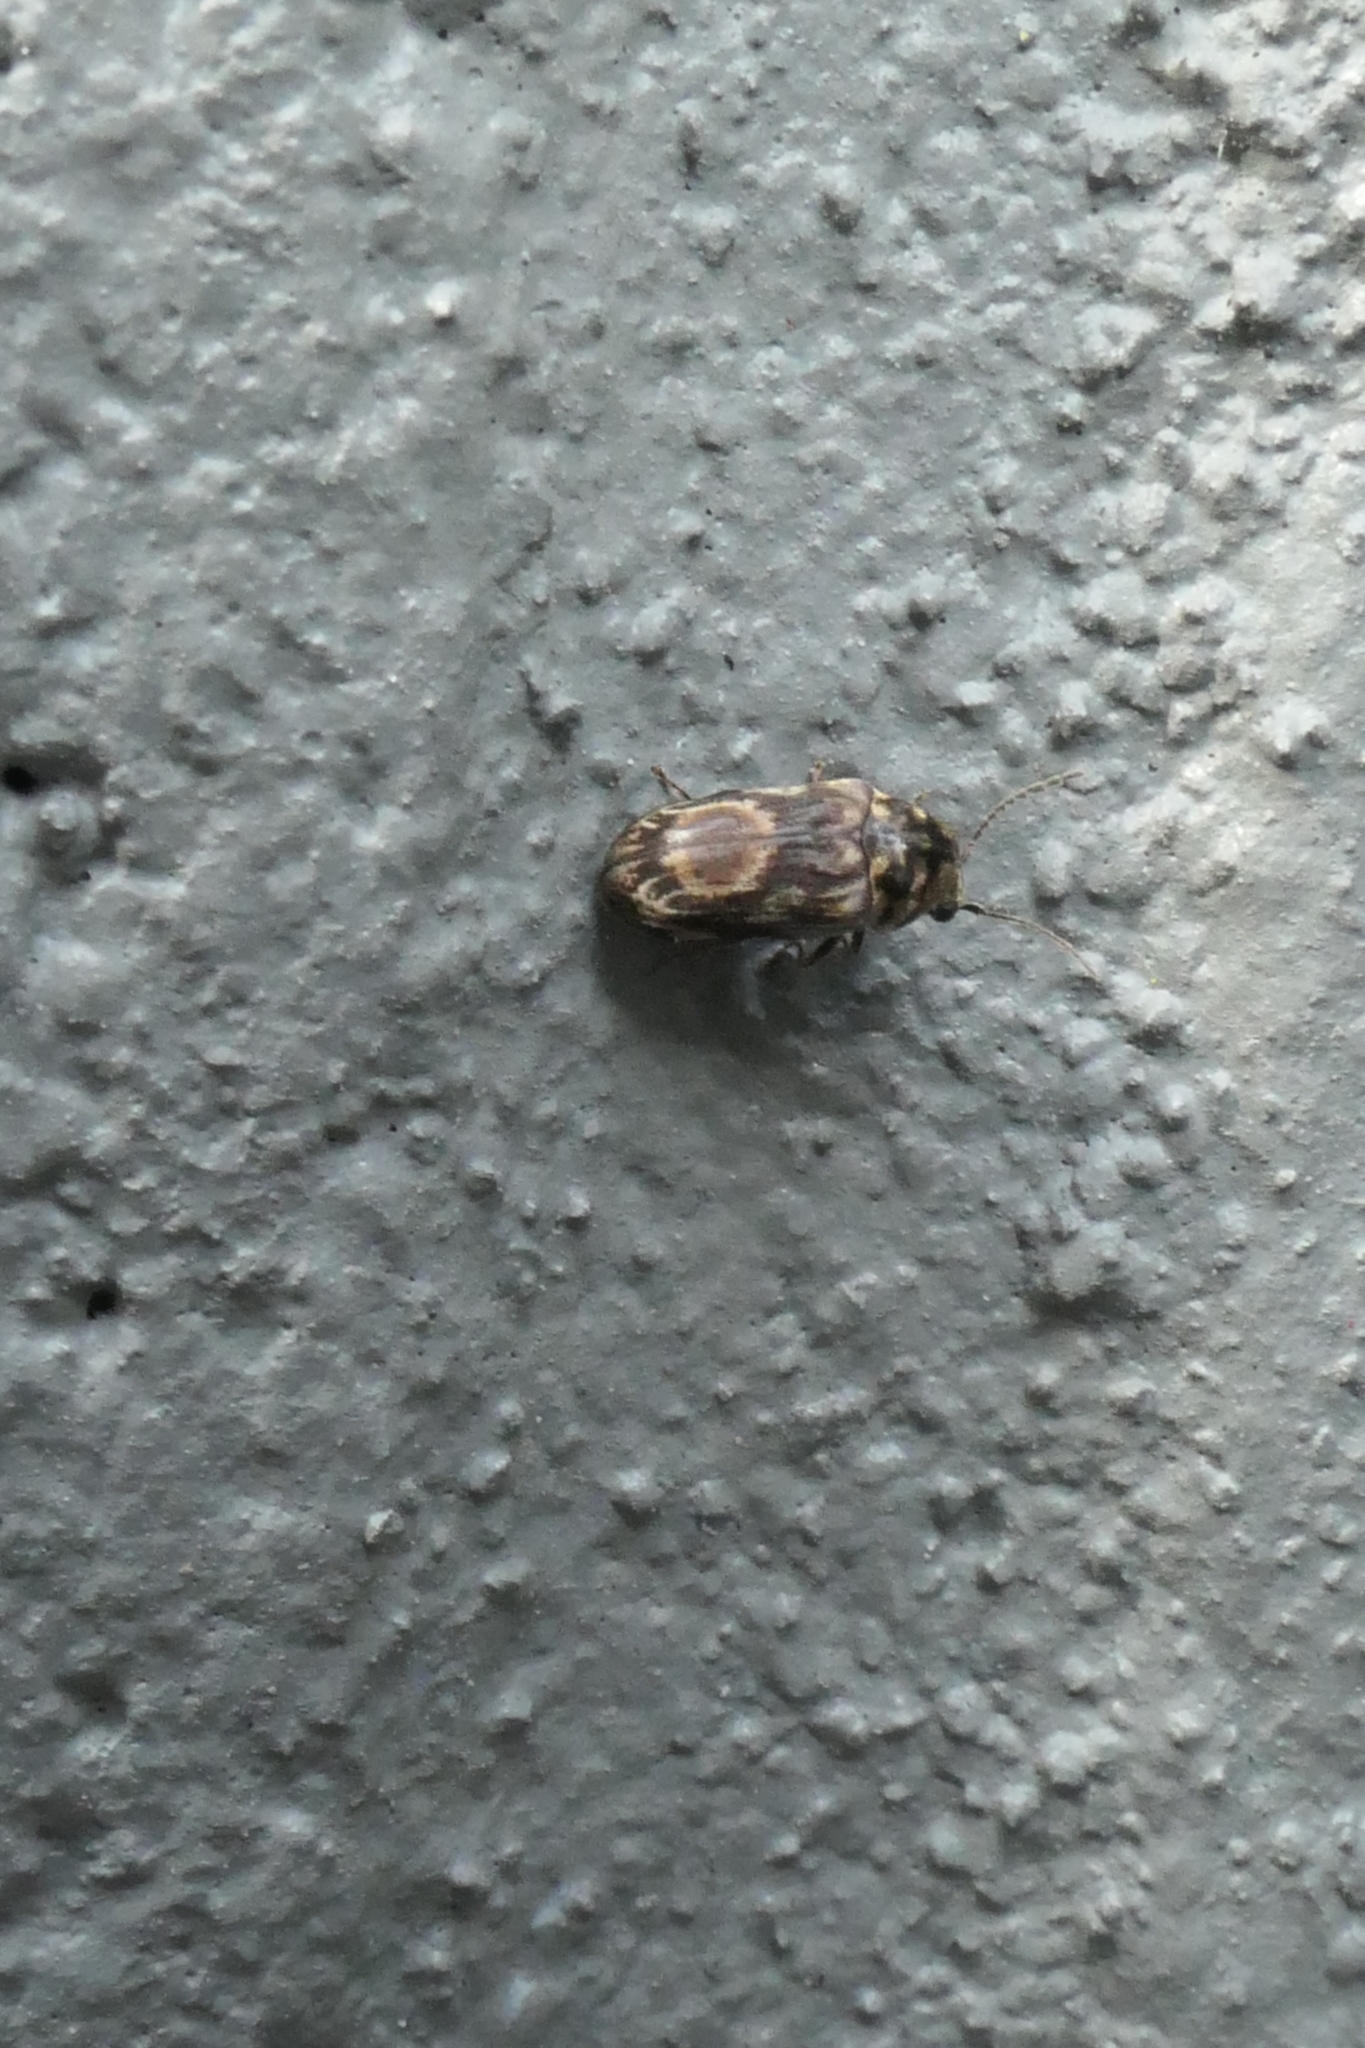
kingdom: Animalia
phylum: Arthropoda
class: Insecta
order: Coleoptera
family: Ptinidae
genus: Leanobium
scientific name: Leanobium
